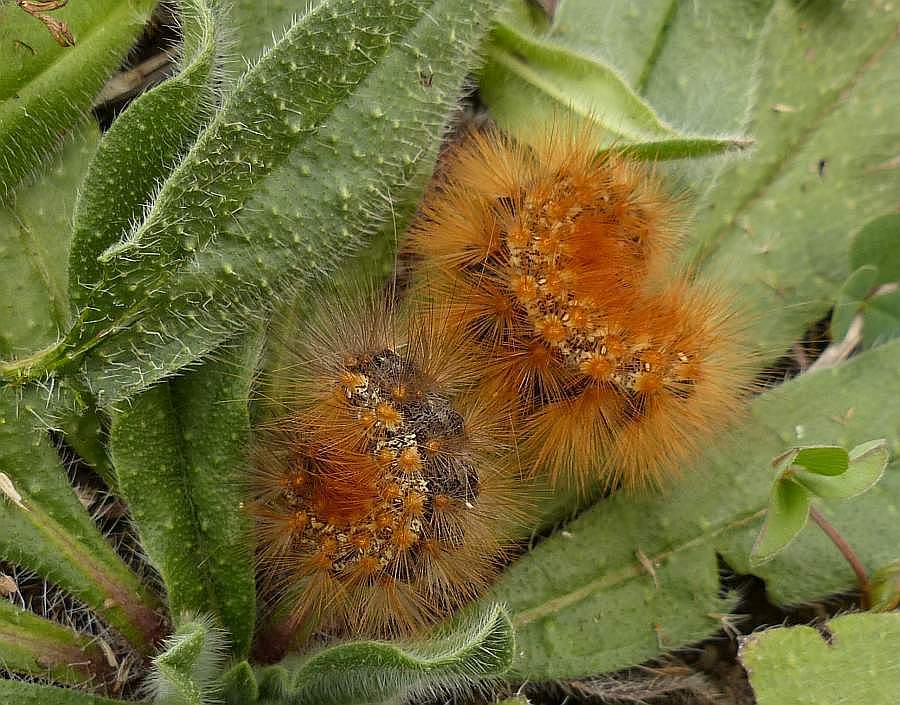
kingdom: Animalia
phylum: Arthropoda
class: Insecta
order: Lepidoptera
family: Erebidae
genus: Estigmene
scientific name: Estigmene acrea
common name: Salt marsh moth
